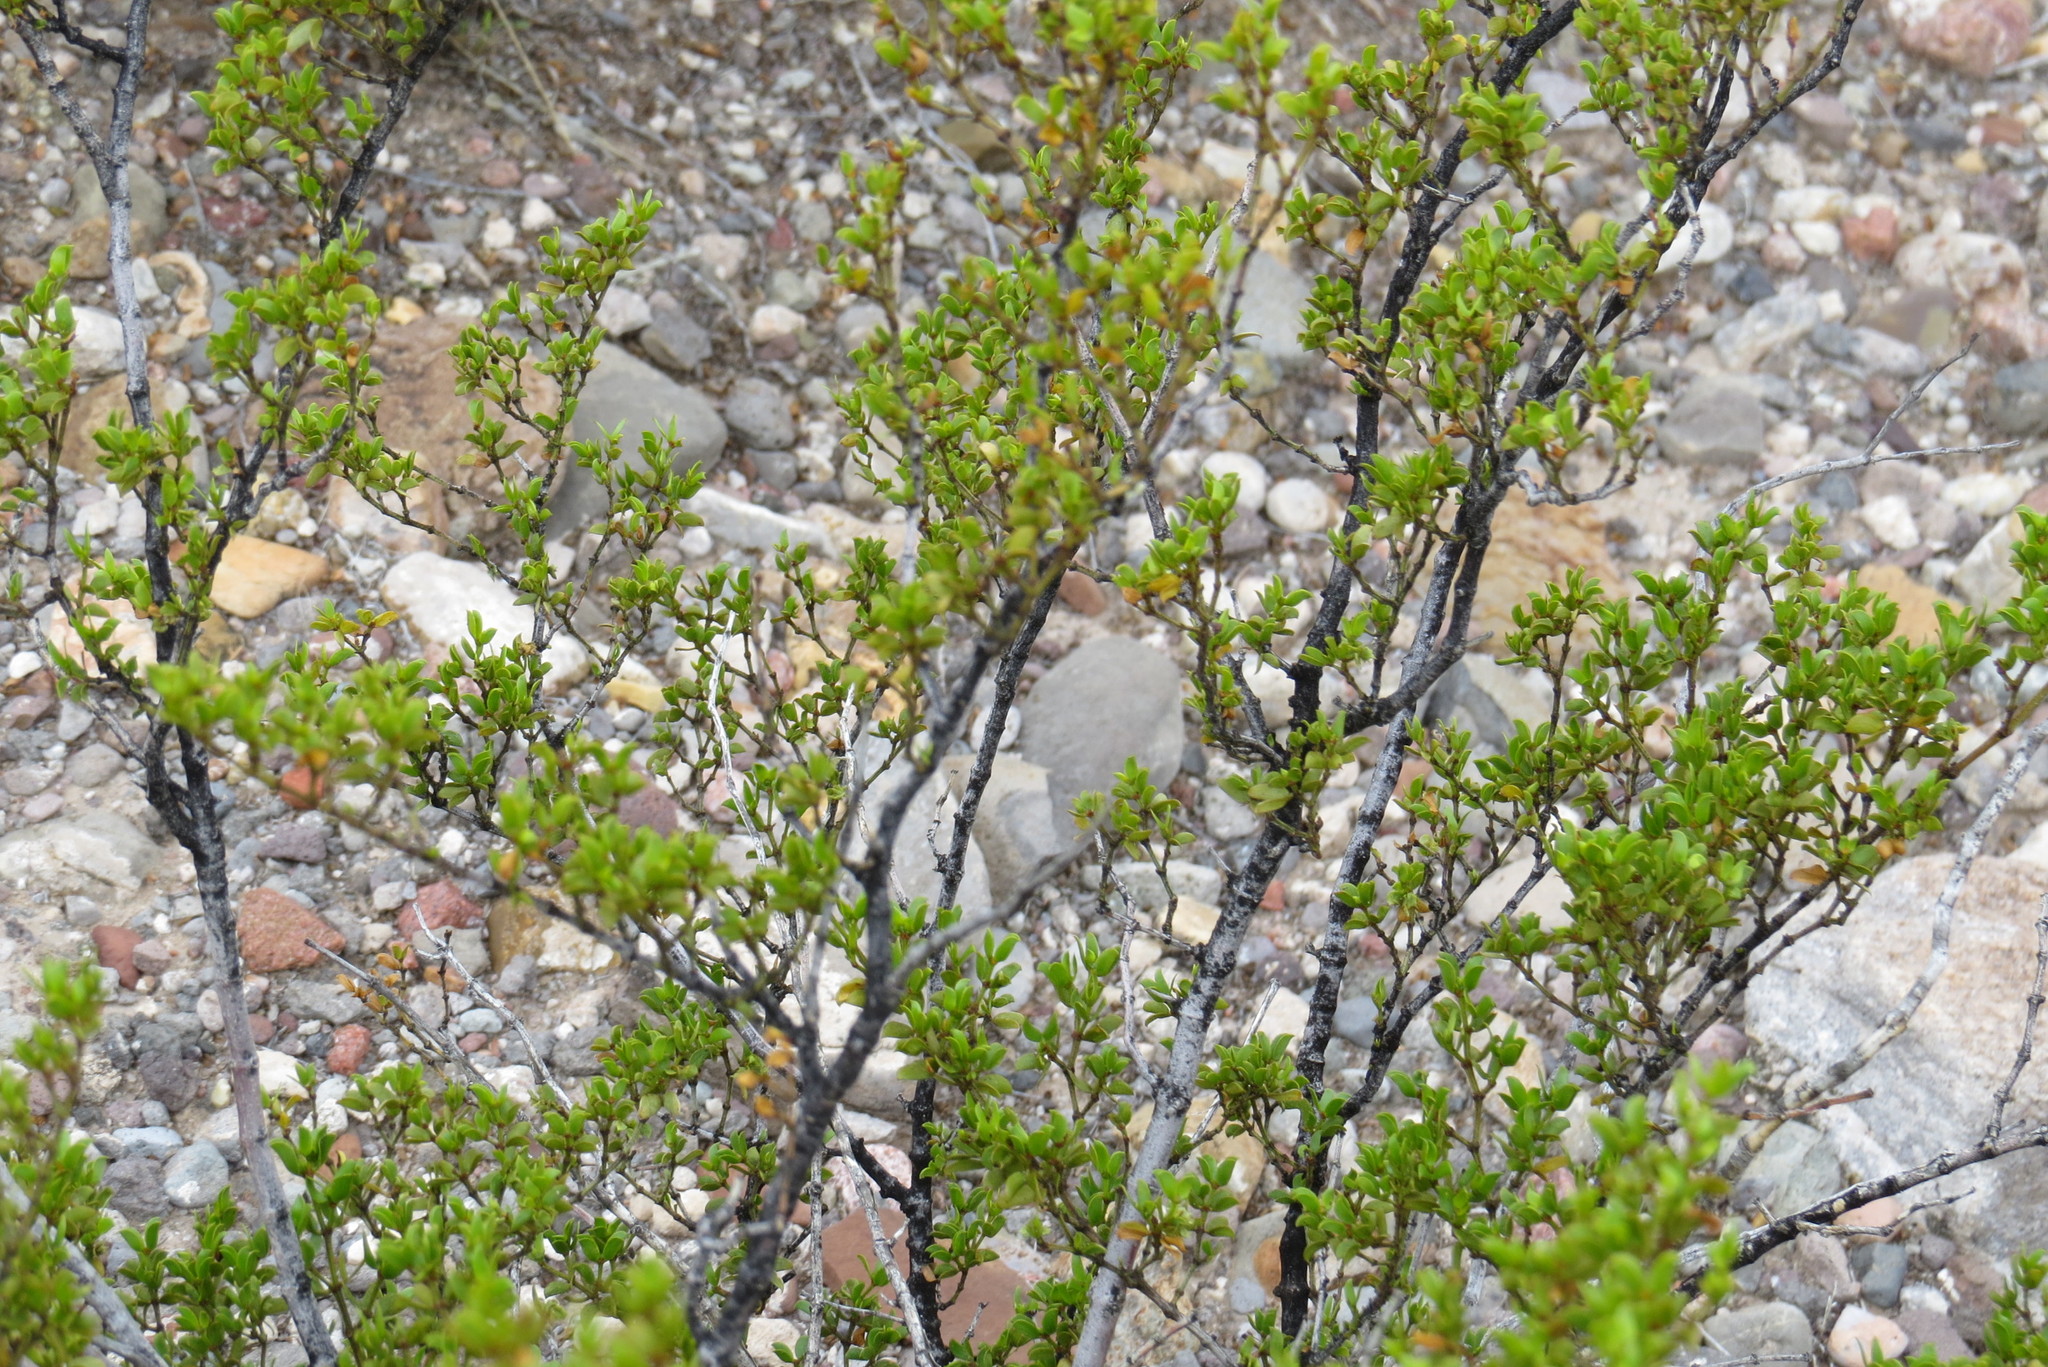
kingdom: Plantae
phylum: Tracheophyta
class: Magnoliopsida
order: Zygophyllales
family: Zygophyllaceae
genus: Larrea
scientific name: Larrea tridentata
